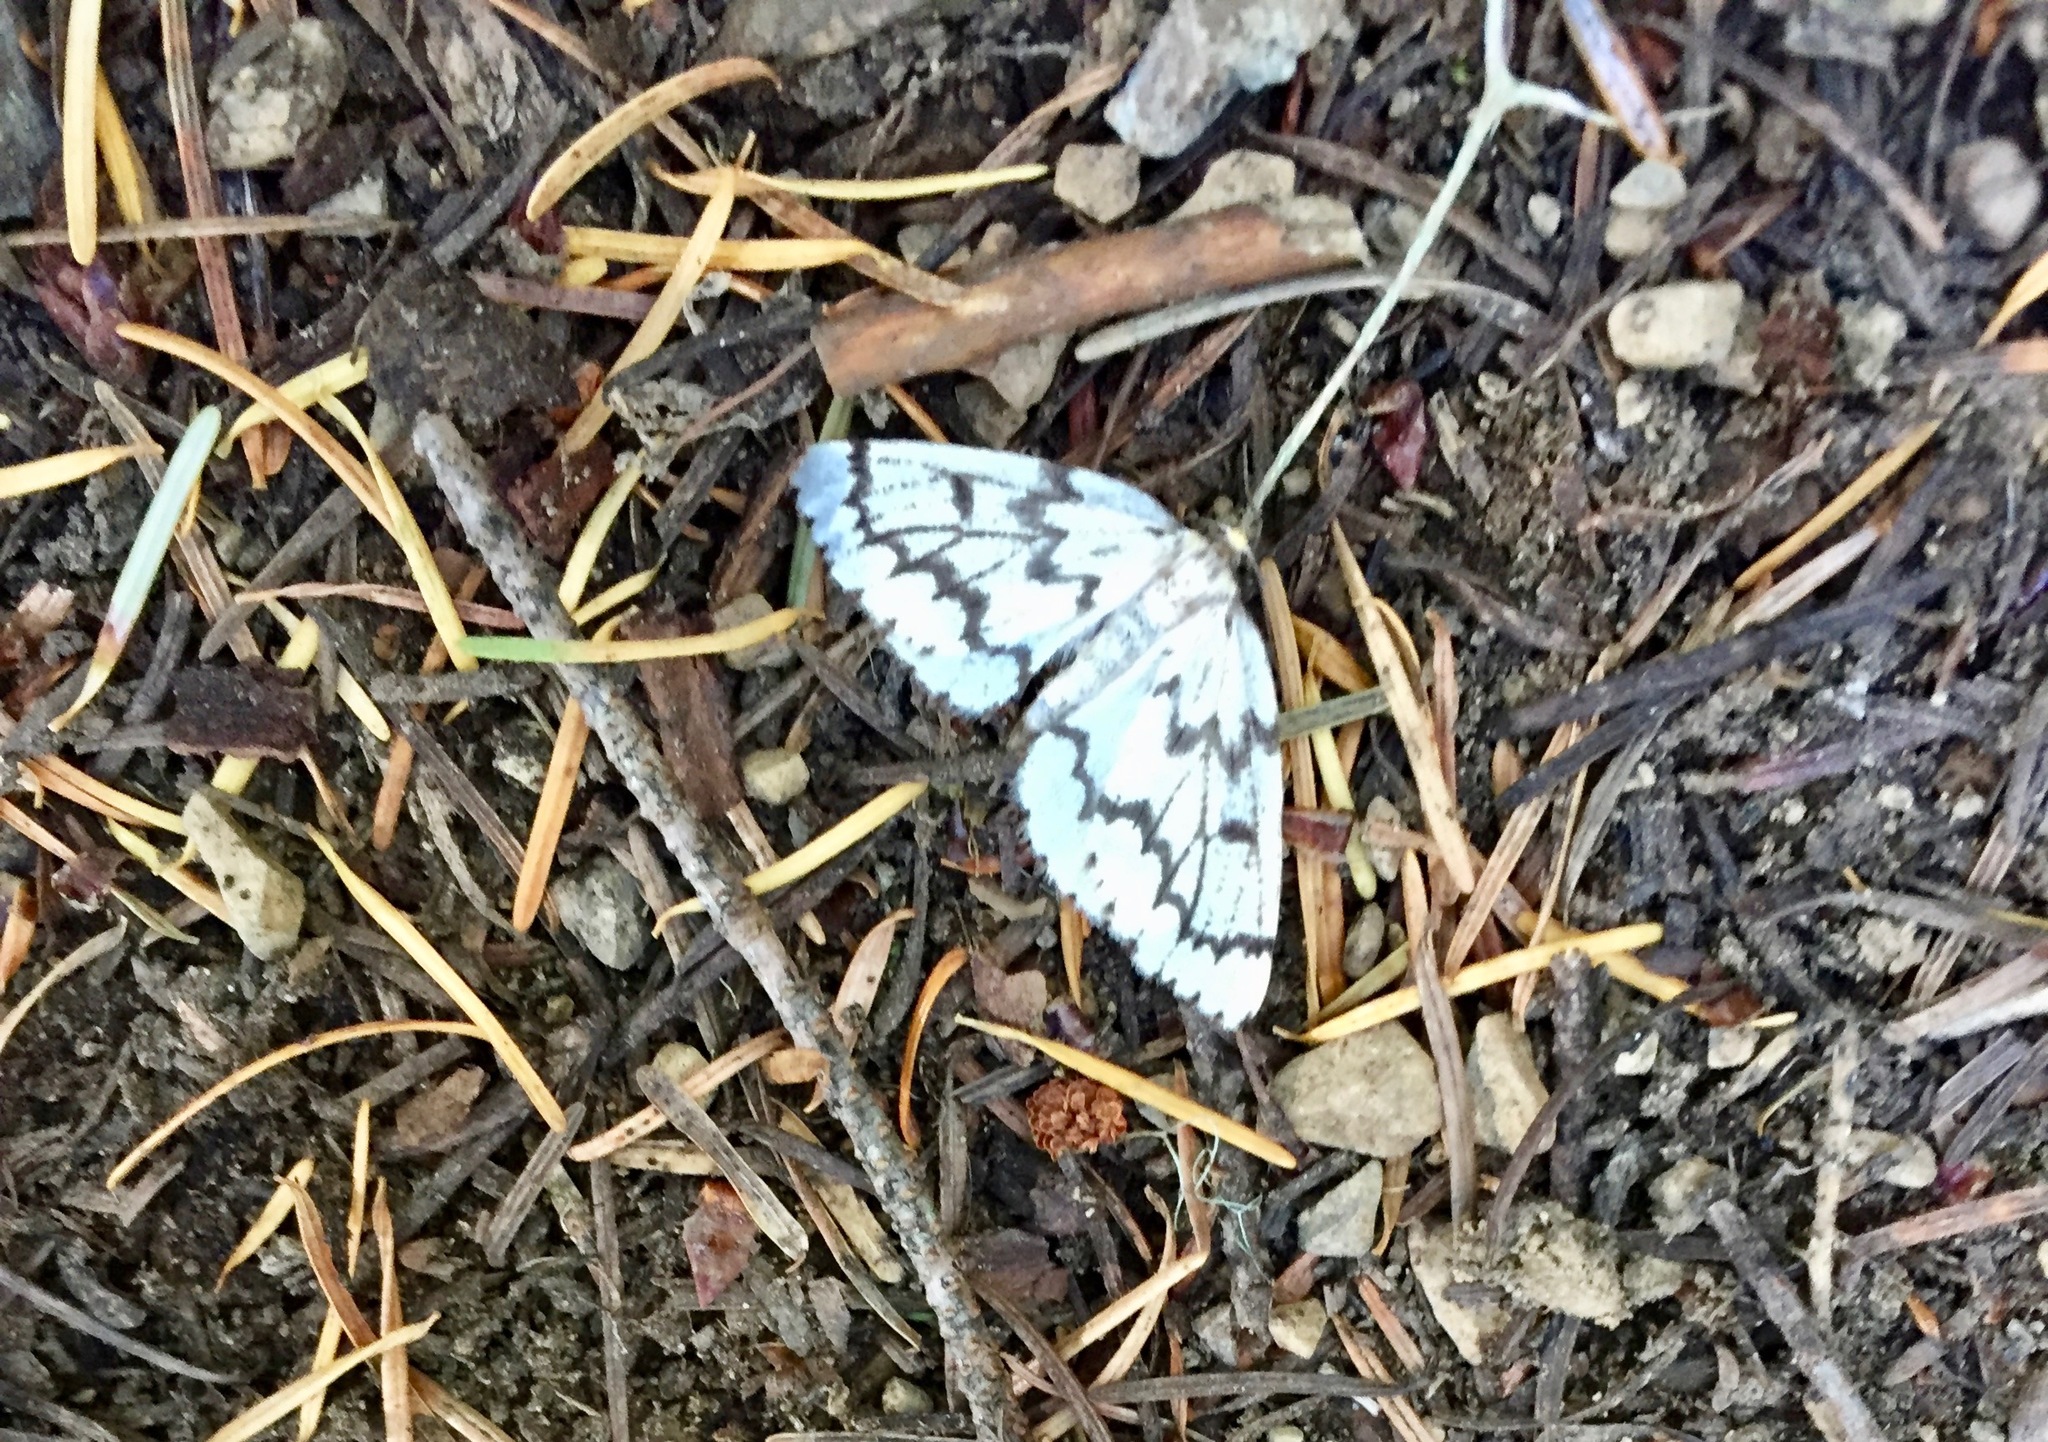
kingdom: Animalia
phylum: Arthropoda
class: Insecta
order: Lepidoptera
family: Geometridae
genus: Nepytia
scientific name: Nepytia phantasmaria
